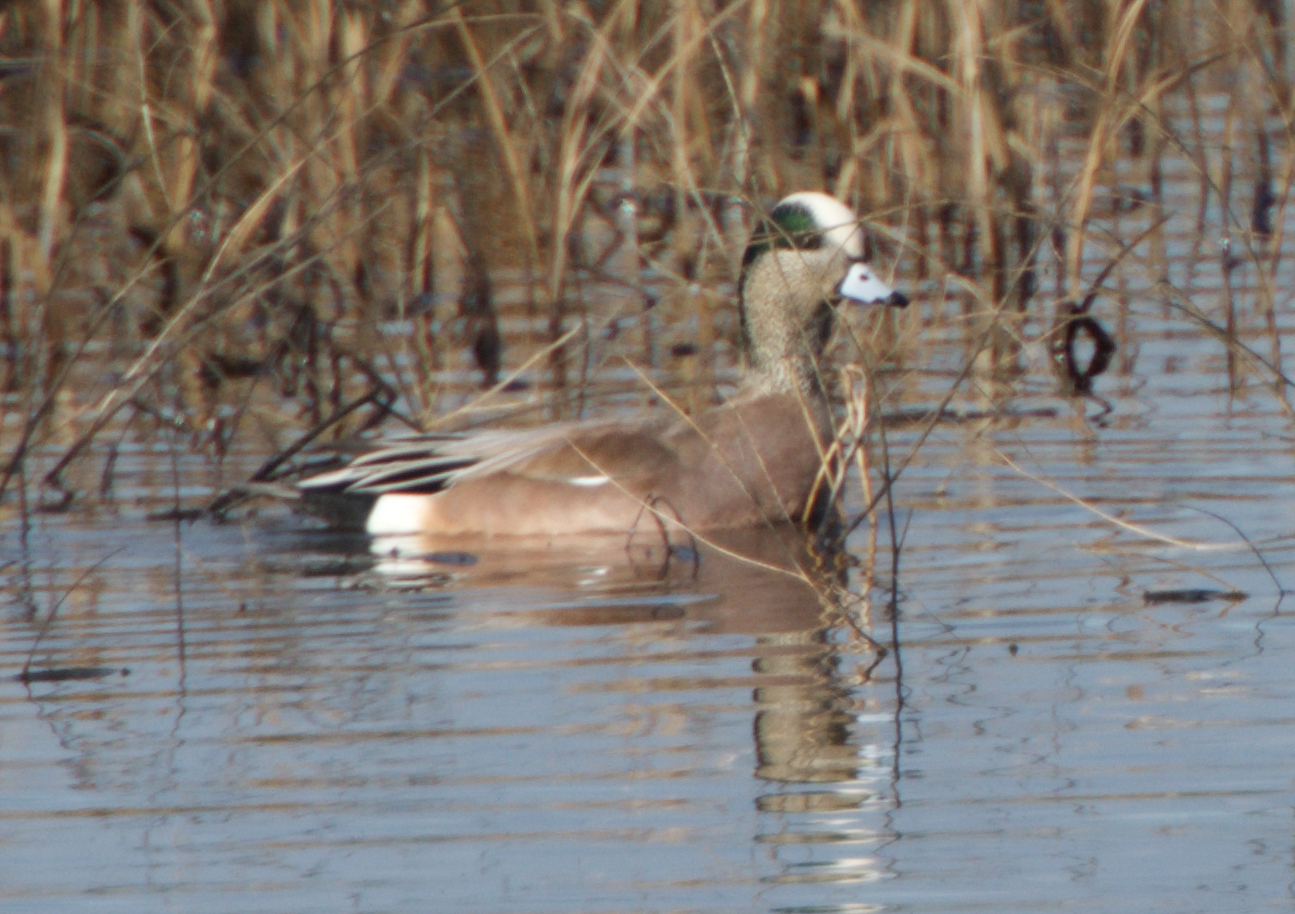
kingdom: Animalia
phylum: Chordata
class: Aves
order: Anseriformes
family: Anatidae
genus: Mareca
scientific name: Mareca americana
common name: American wigeon
